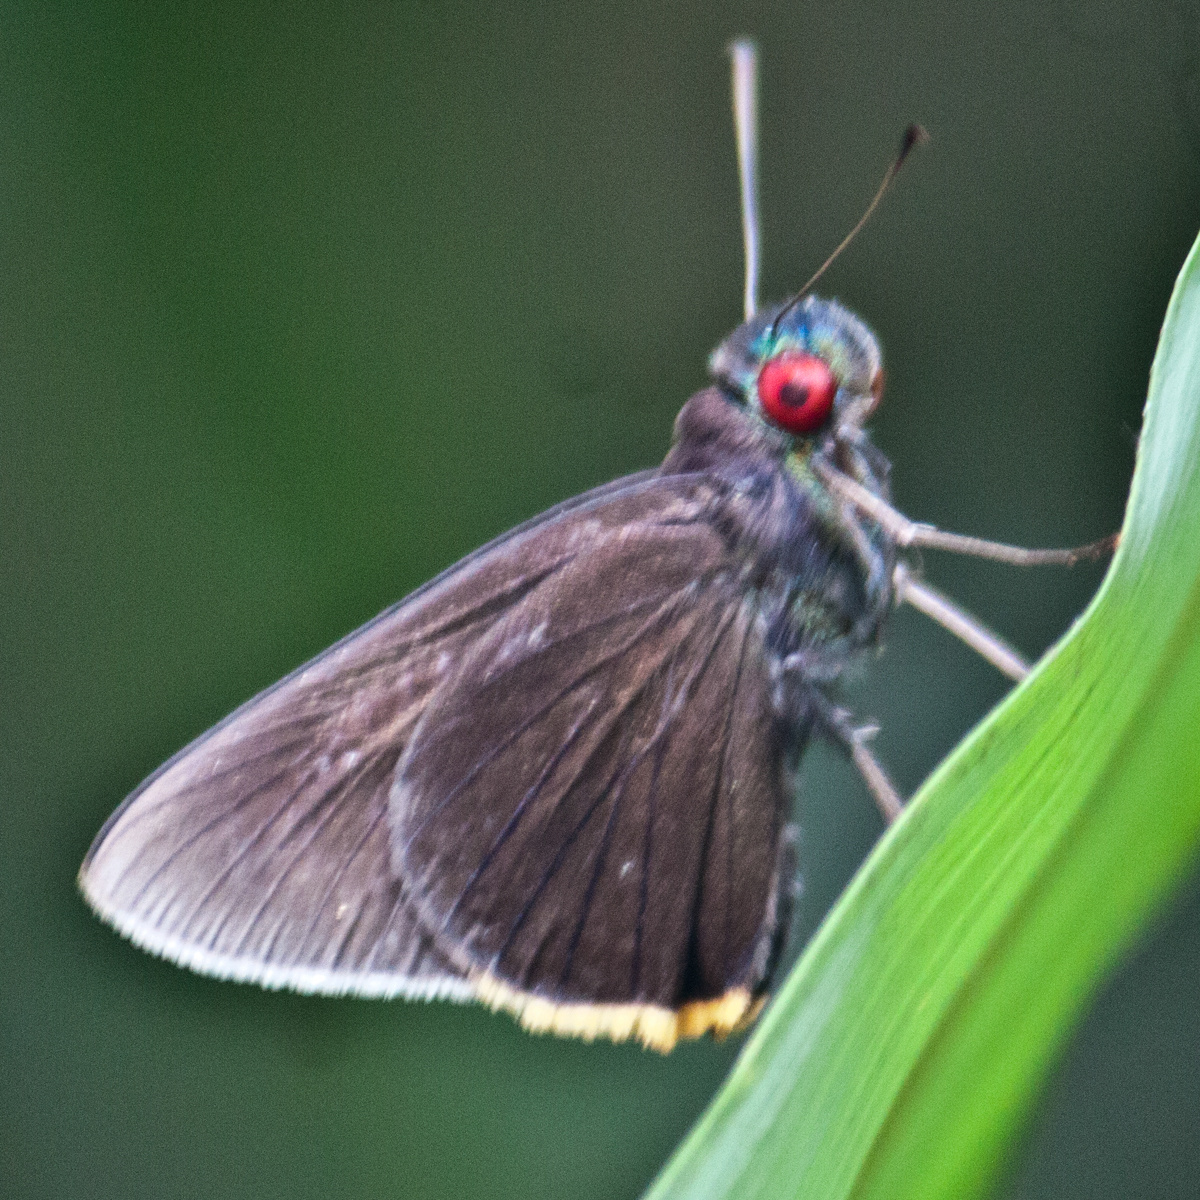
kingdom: Animalia
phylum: Arthropoda
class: Insecta
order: Lepidoptera
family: Hesperiidae
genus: Matapa
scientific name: Matapa sasivarna
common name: Black-veined redeye
